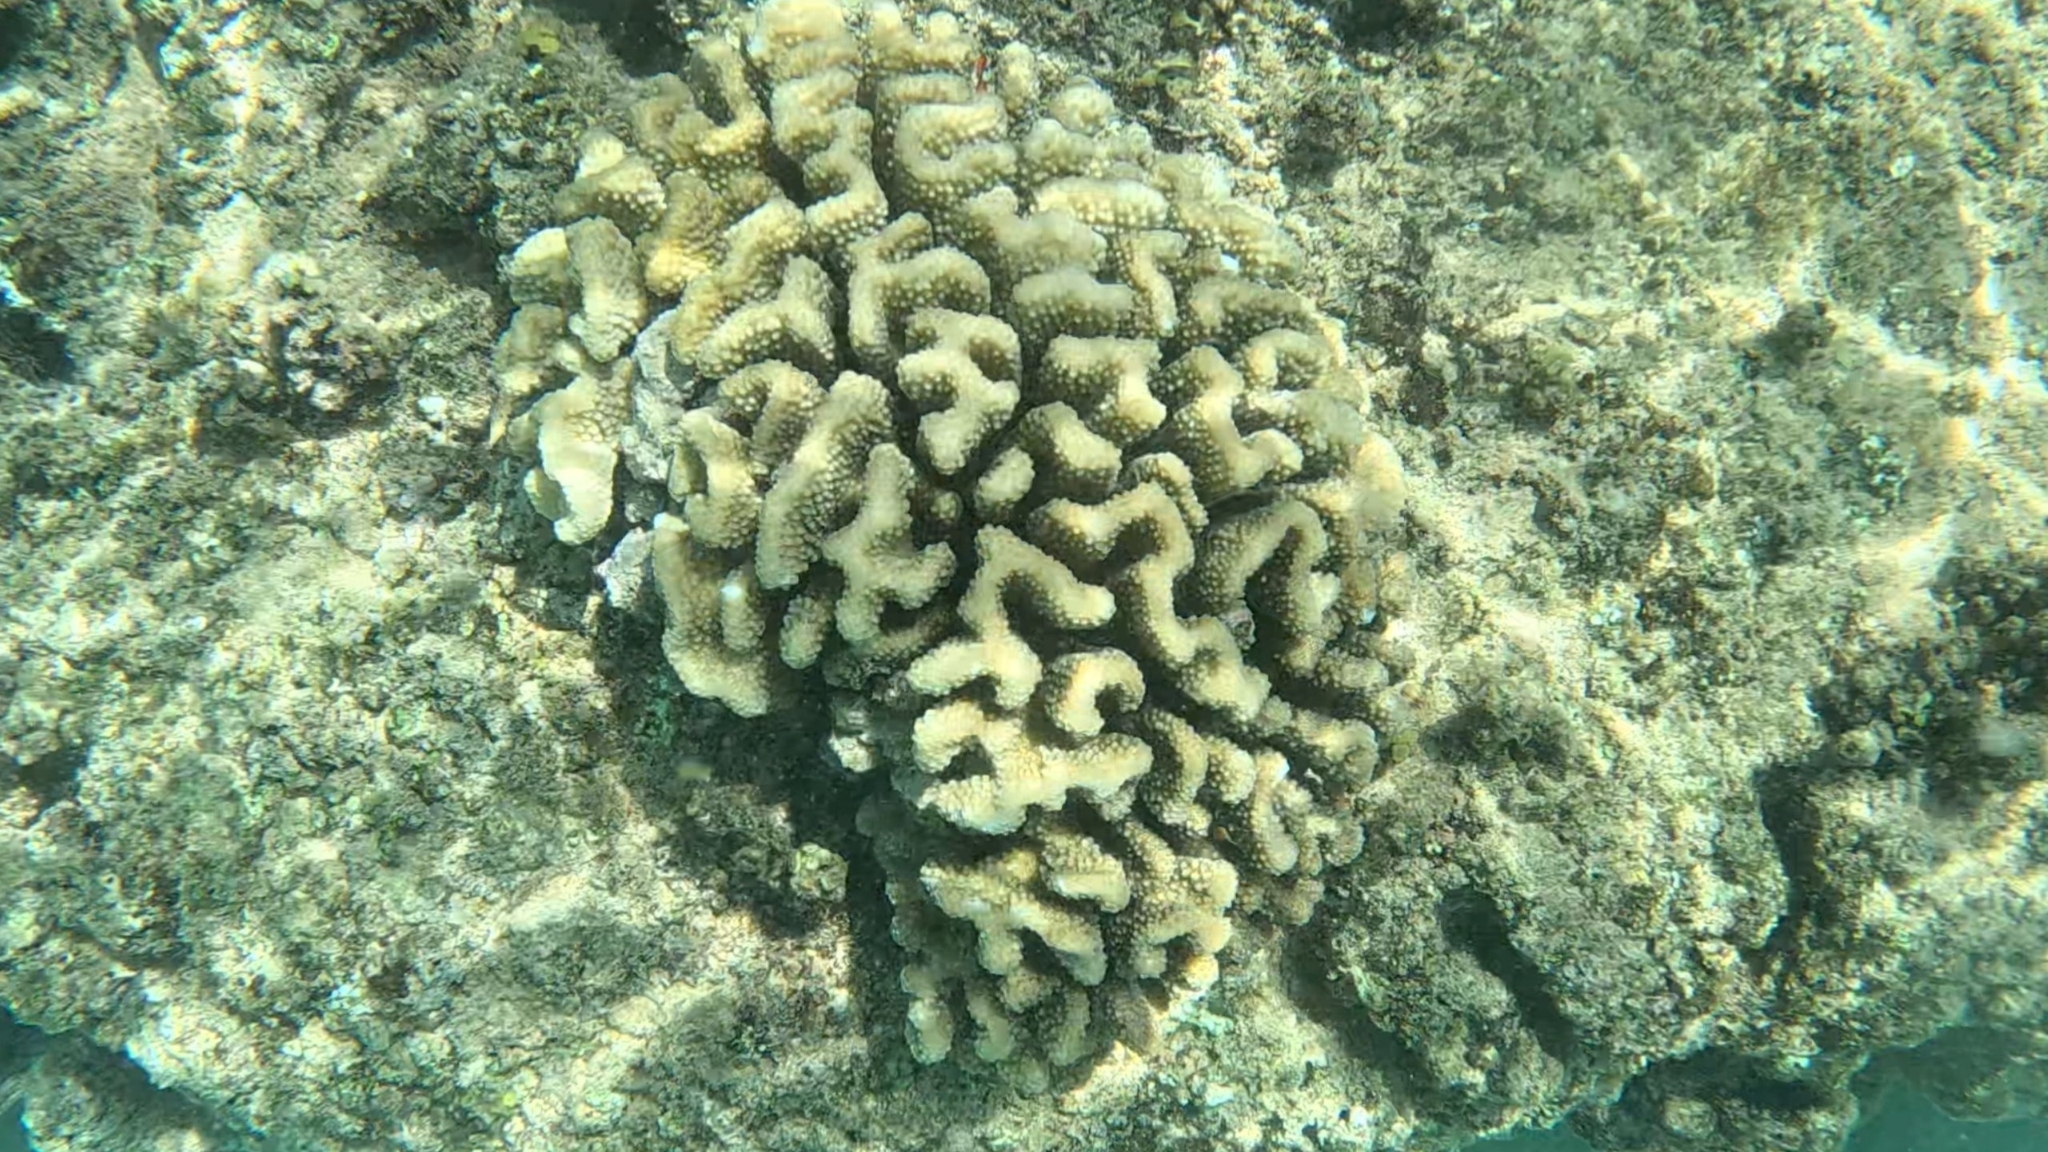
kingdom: Animalia
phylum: Cnidaria
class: Anthozoa
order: Scleractinia
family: Pocilloporidae
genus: Pocillopora
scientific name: Pocillopora meandrina
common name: Cauliflower coral
